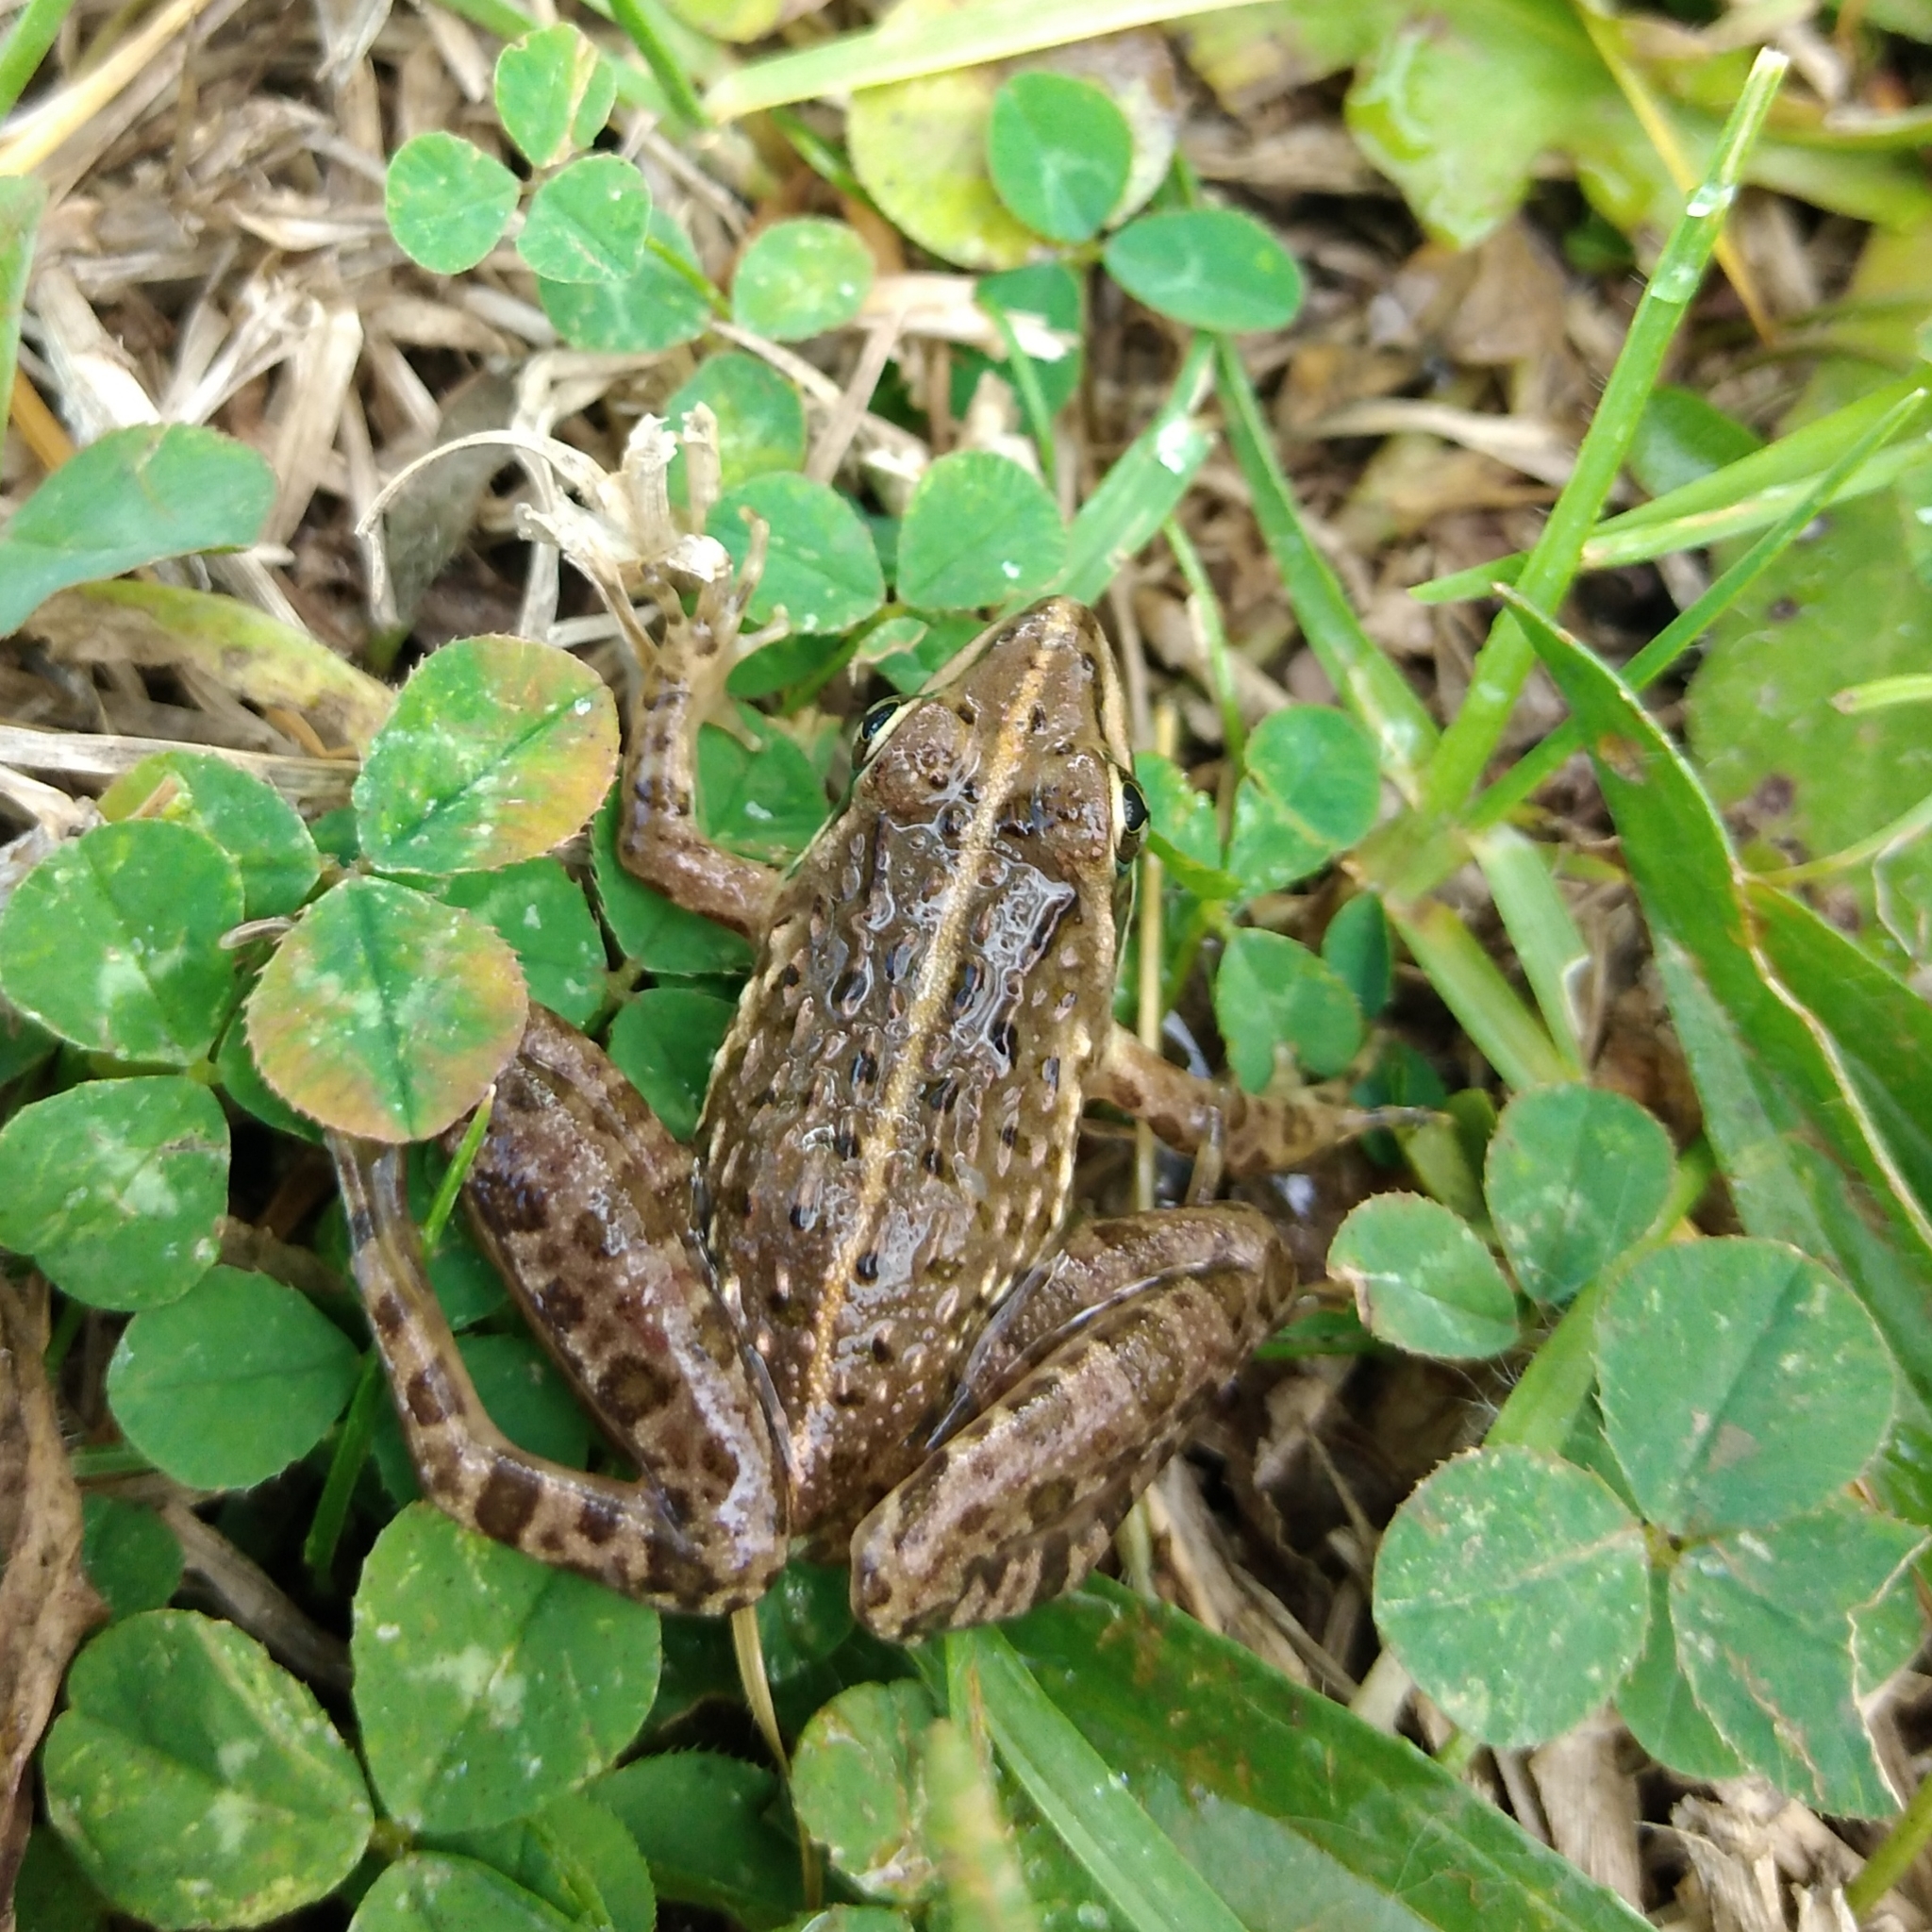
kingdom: Animalia
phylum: Chordata
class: Amphibia
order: Anura
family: Pyxicephalidae
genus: Amietia
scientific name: Amietia delalandii
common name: Delalande's river frog
